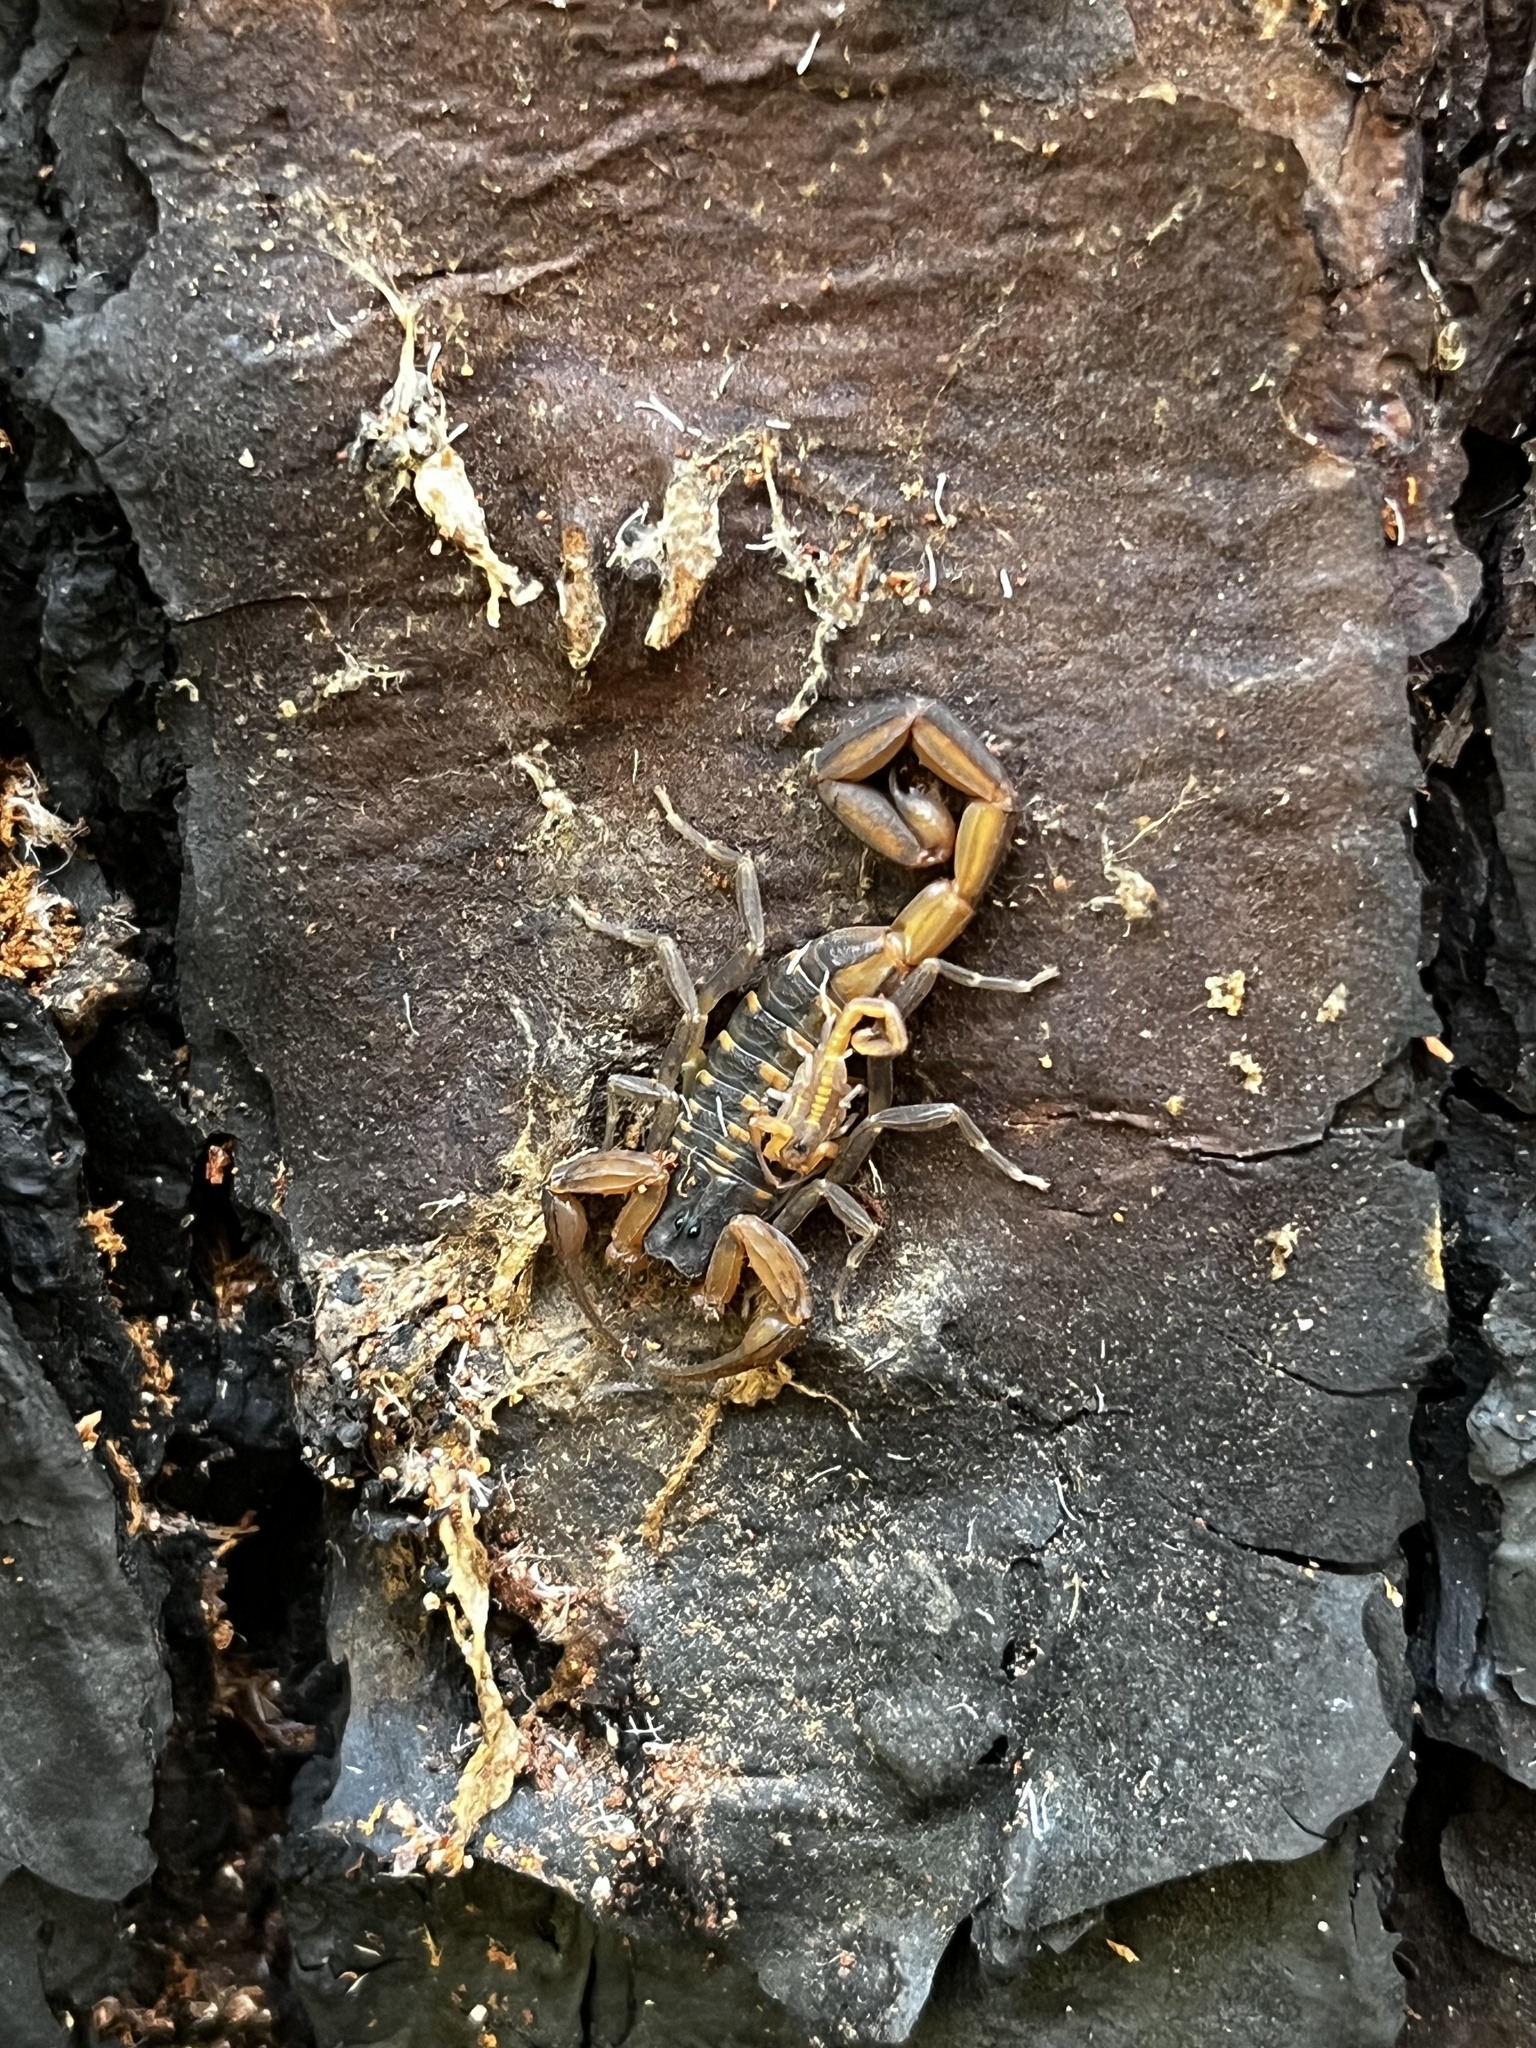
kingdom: Animalia
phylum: Arthropoda
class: Arachnida
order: Scorpiones
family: Buthidae
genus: Centruroides
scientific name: Centruroides hentzi
